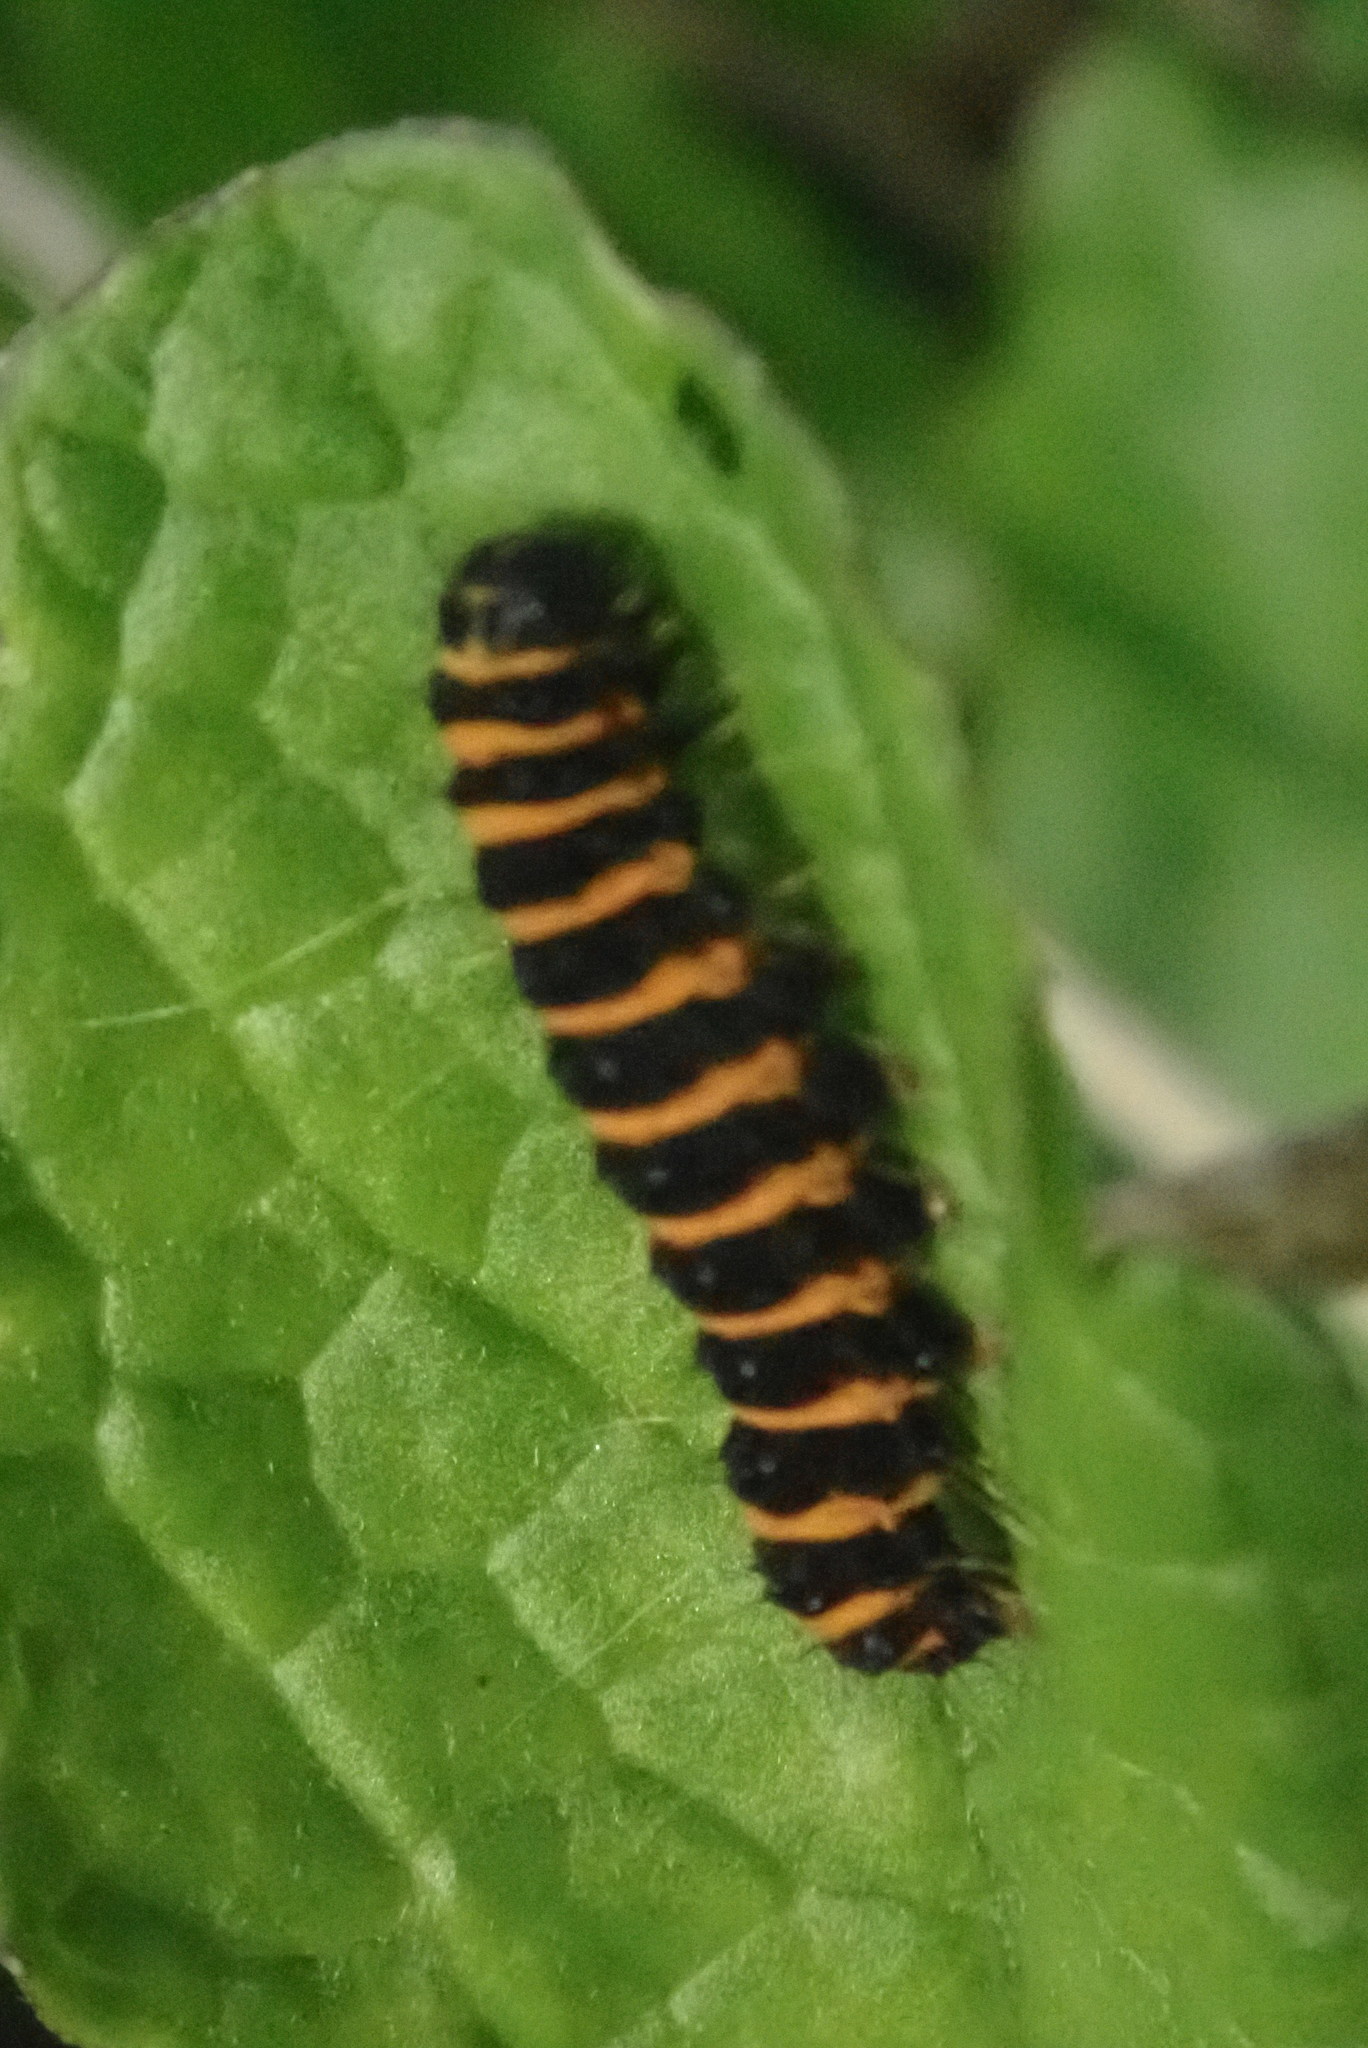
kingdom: Animalia
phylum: Arthropoda
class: Insecta
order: Lepidoptera
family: Erebidae
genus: Tyria
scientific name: Tyria jacobaeae
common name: Cinnabar
